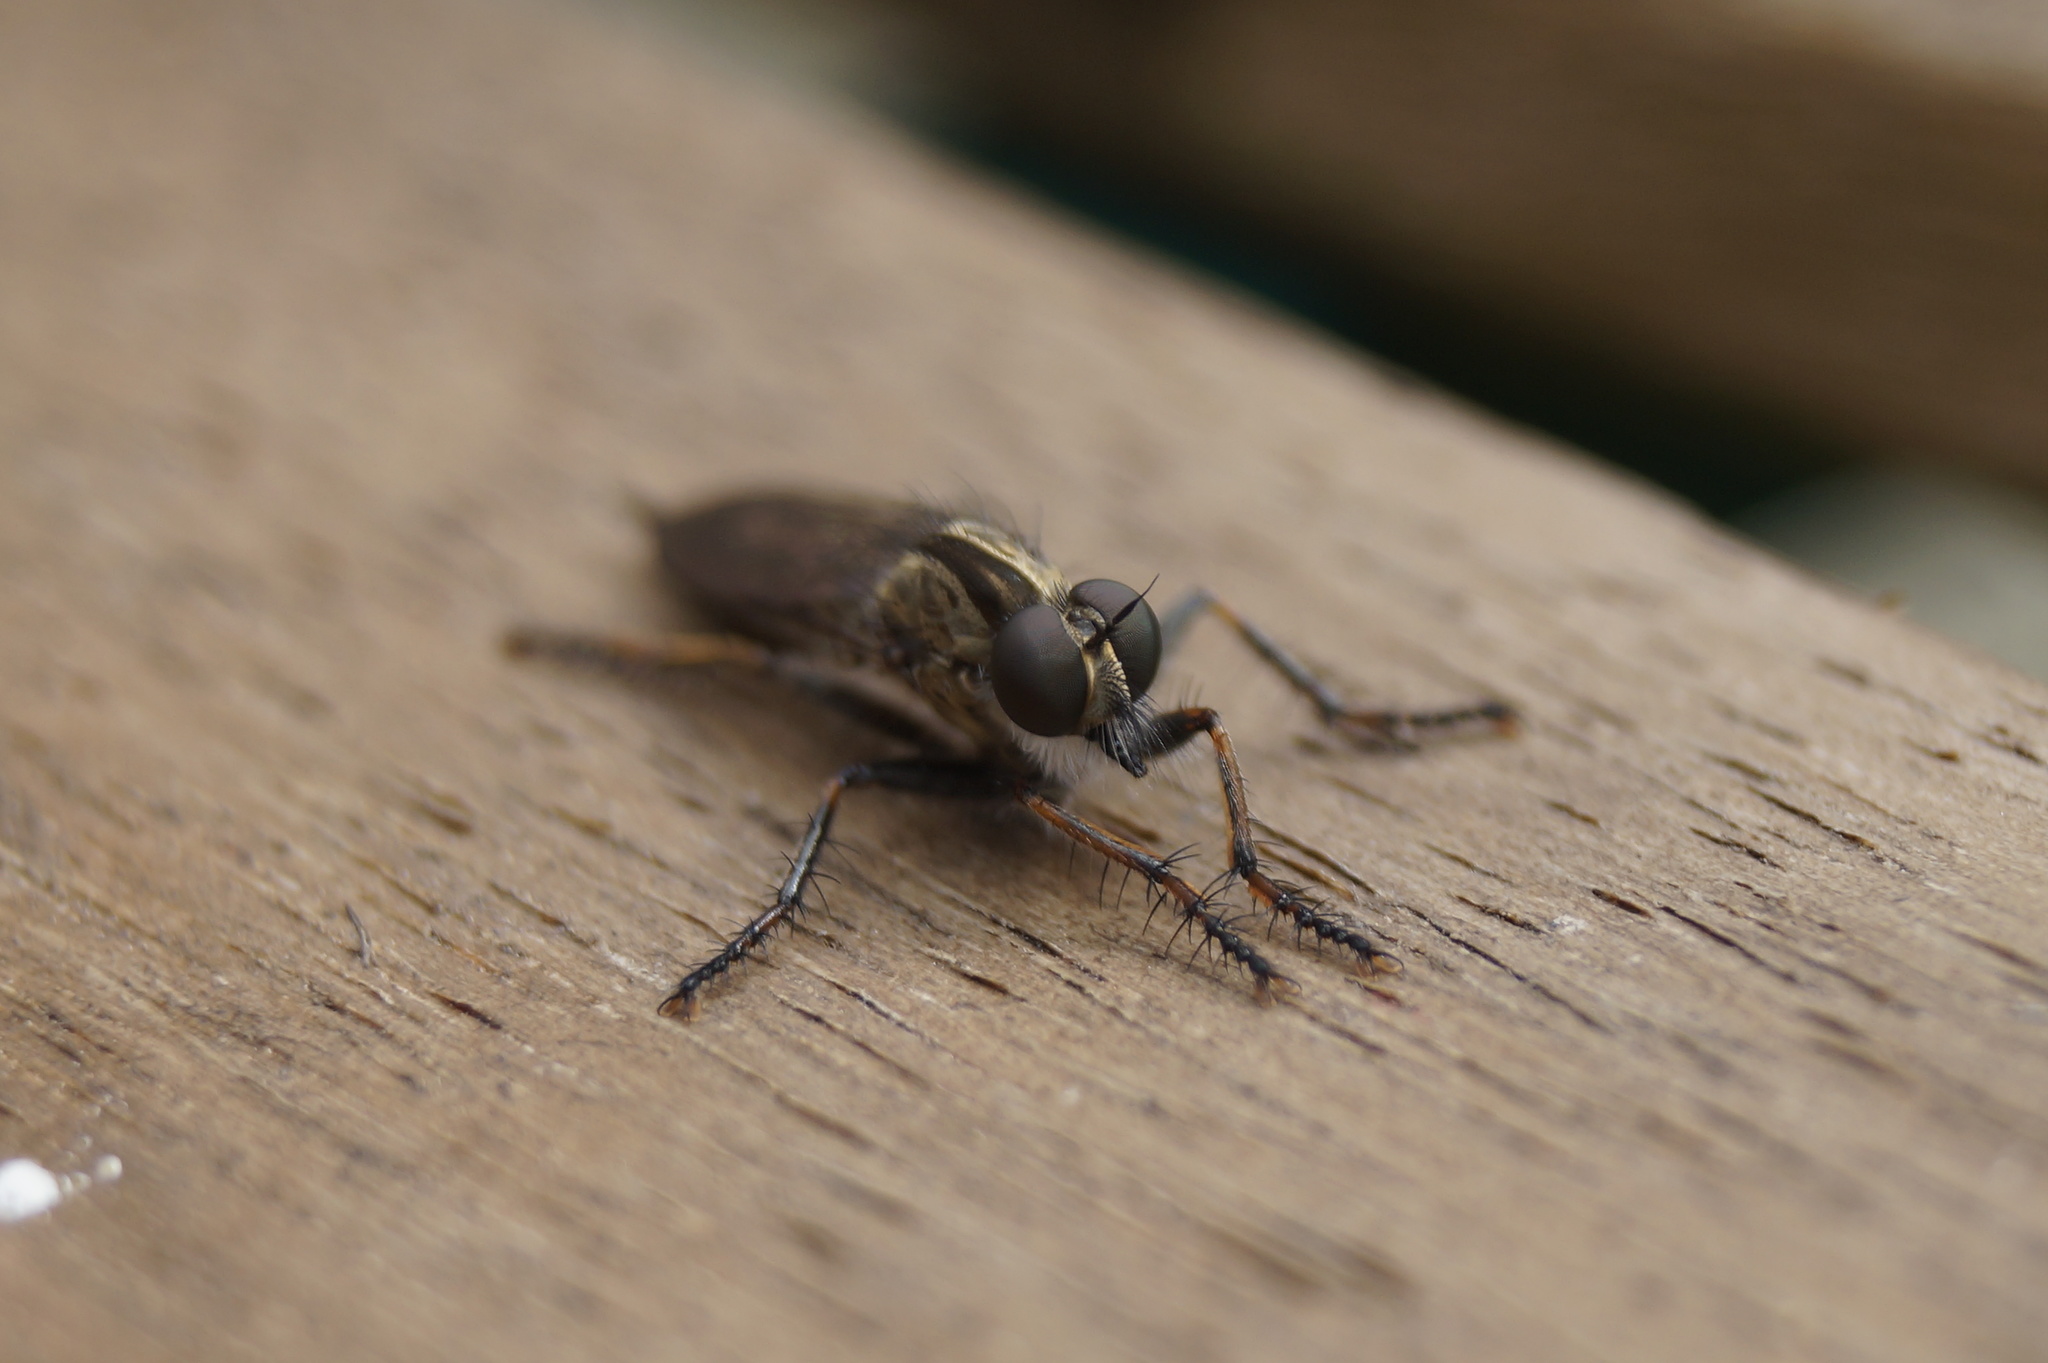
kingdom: Animalia
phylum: Arthropoda
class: Insecta
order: Diptera
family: Asilidae
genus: Machimus
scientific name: Machimus atricapillus
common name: Kite-tailed robberfly
